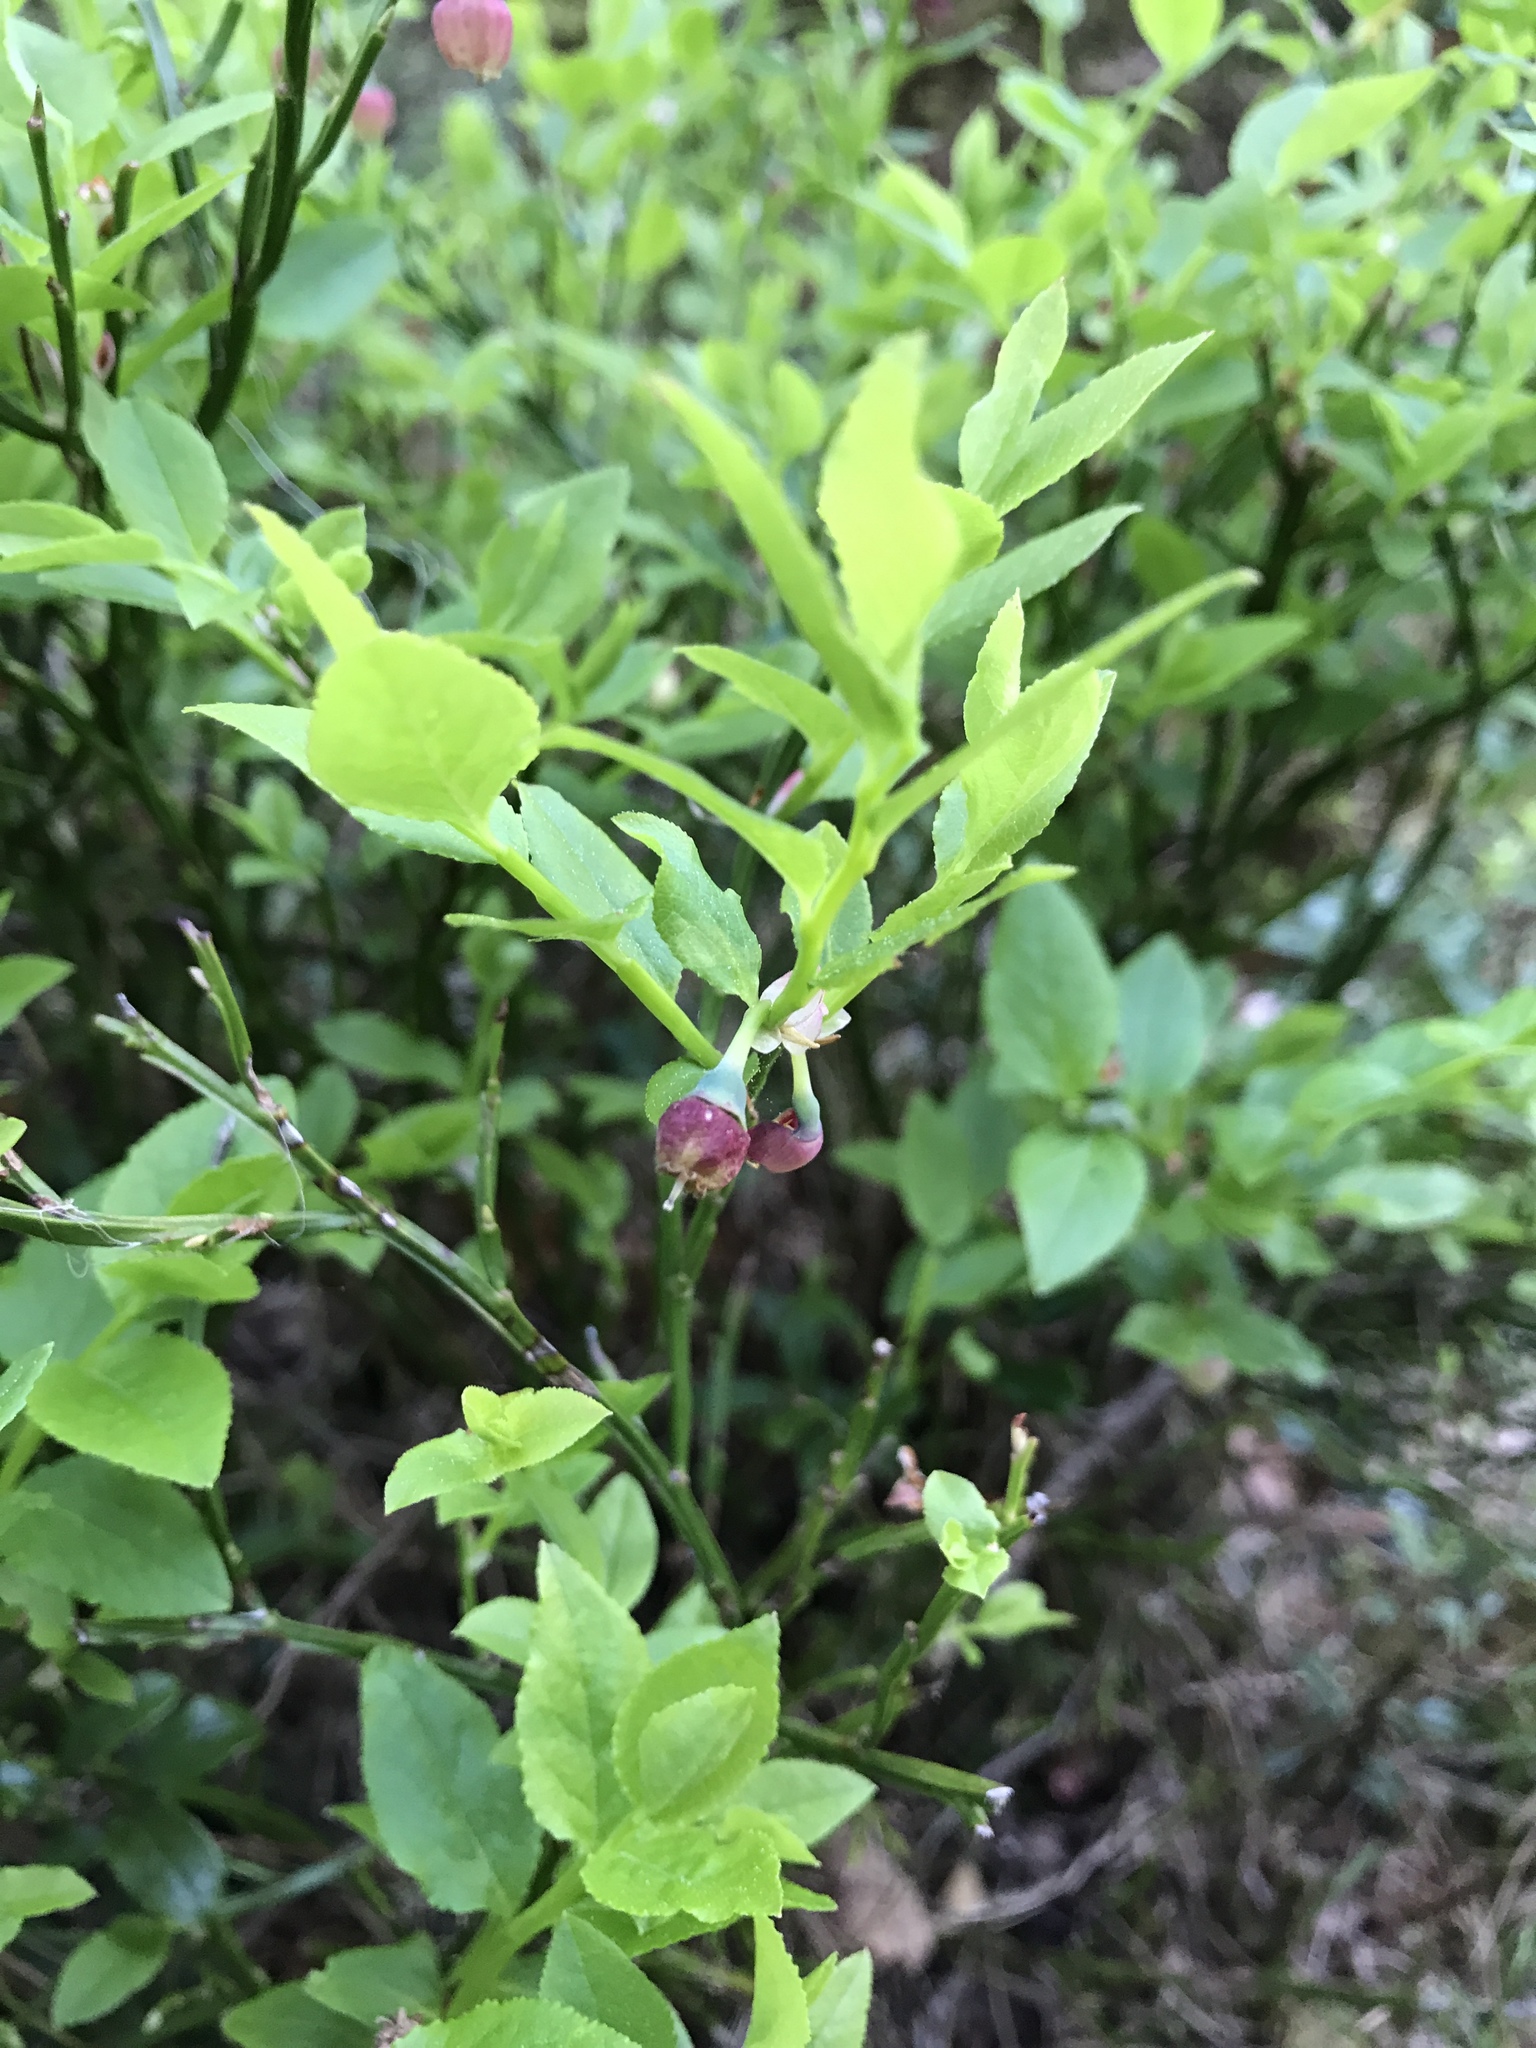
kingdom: Plantae
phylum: Tracheophyta
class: Magnoliopsida
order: Ericales
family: Ericaceae
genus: Vaccinium
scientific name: Vaccinium myrtillus
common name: Bilberry
